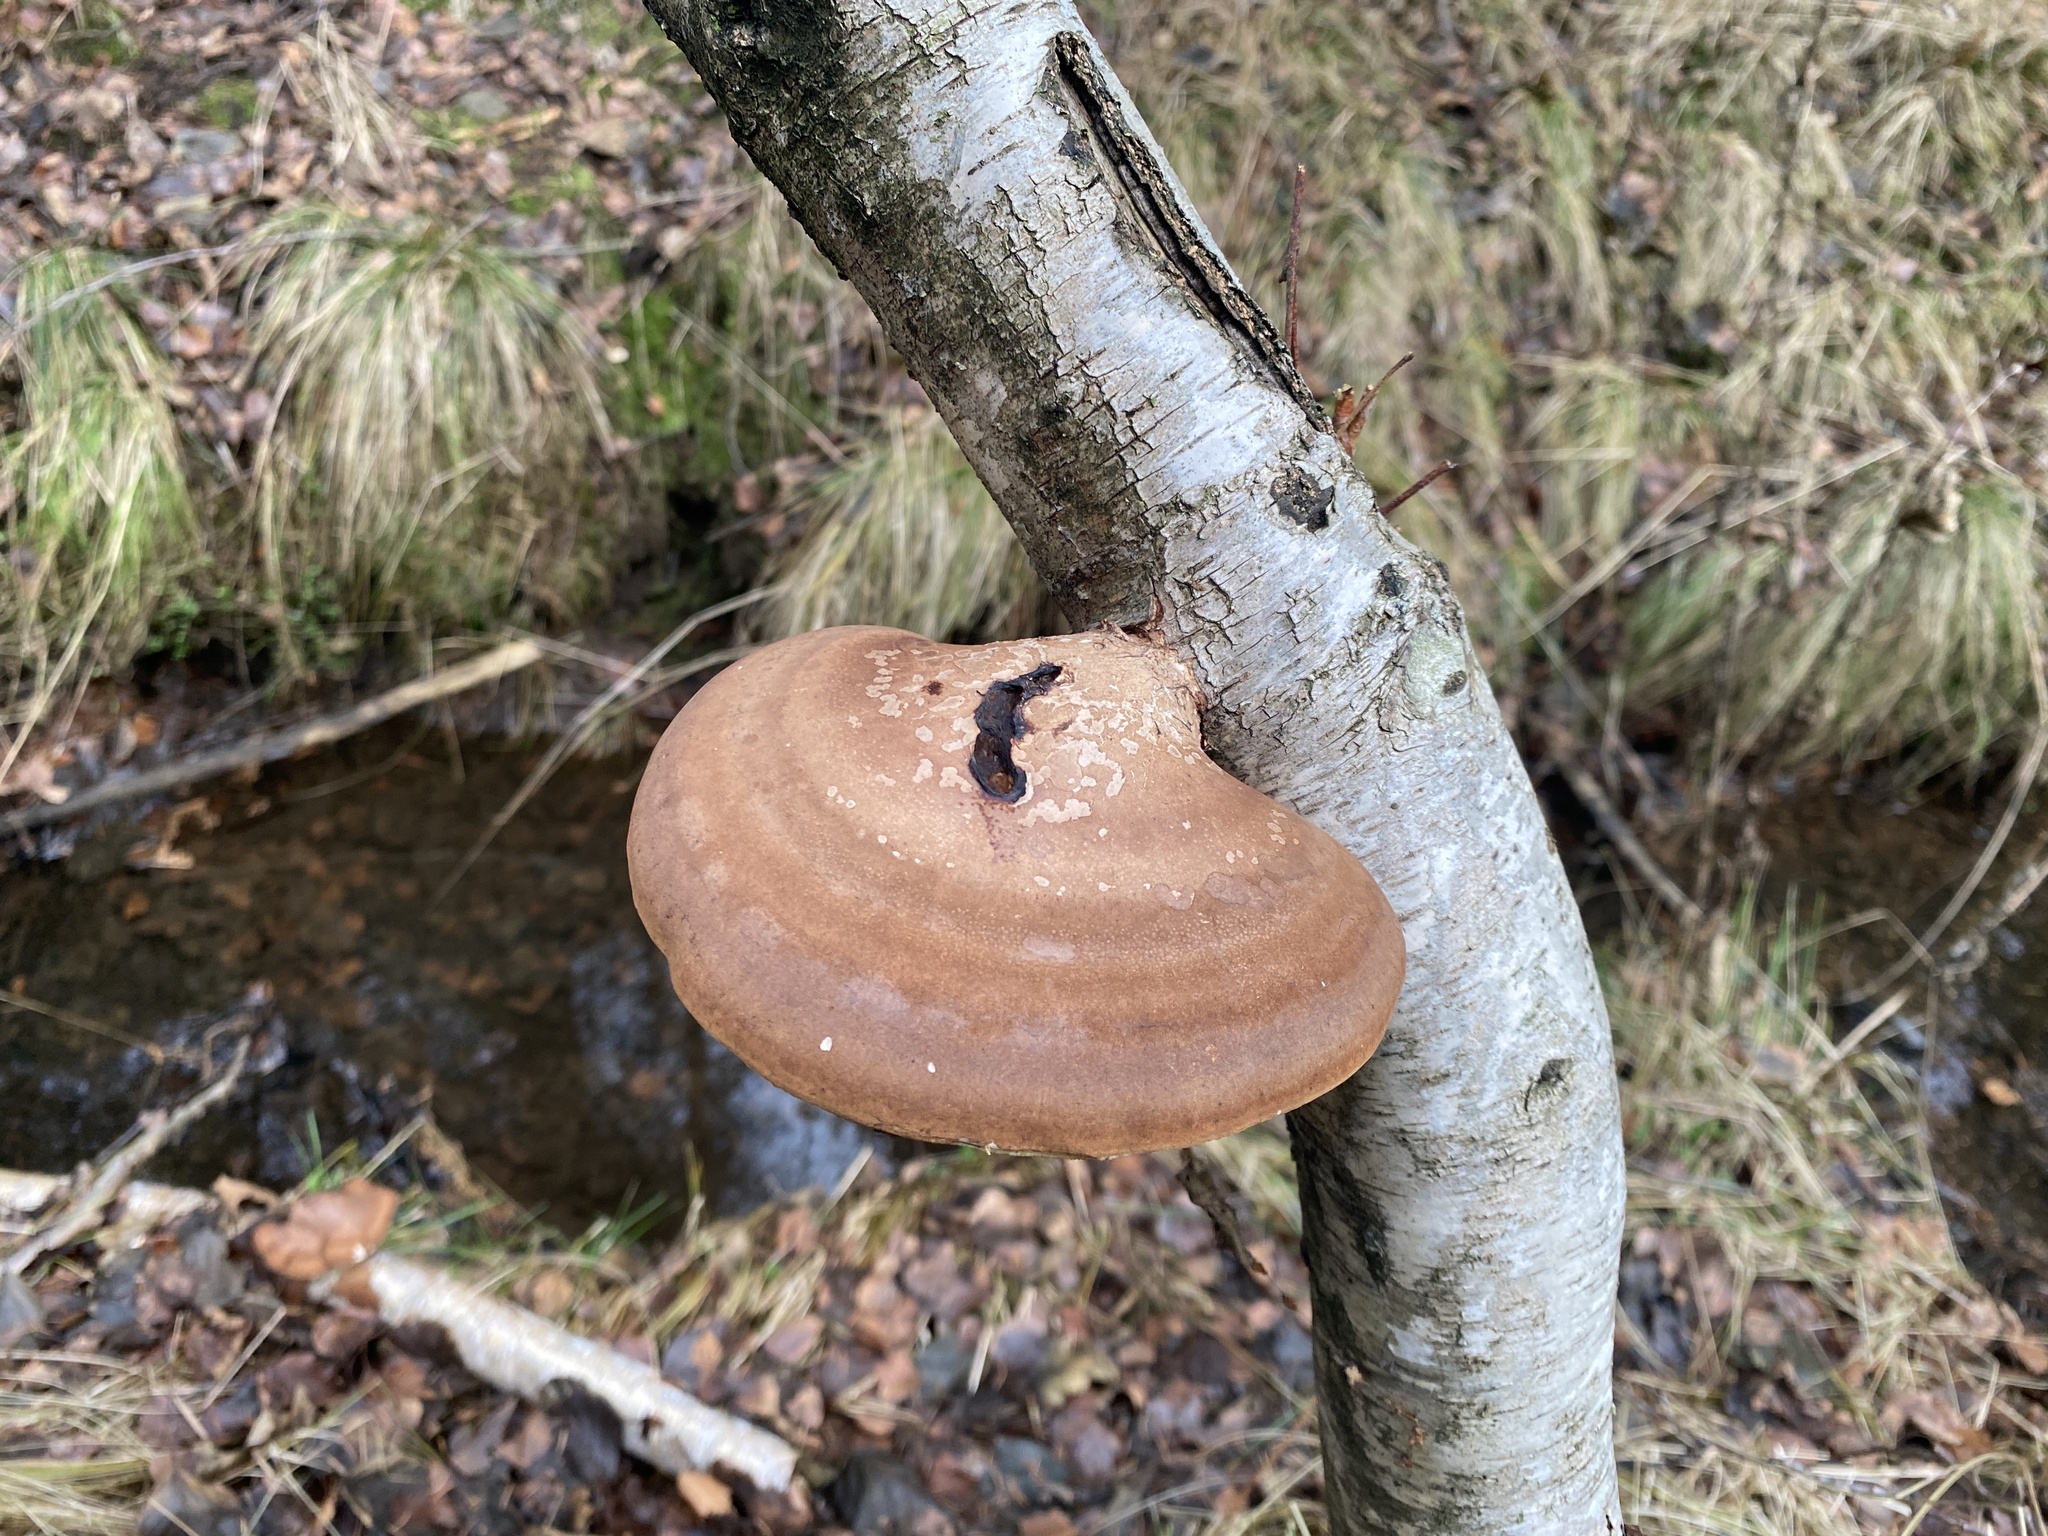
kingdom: Fungi
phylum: Basidiomycota
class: Agaricomycetes
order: Polyporales
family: Fomitopsidaceae
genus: Fomitopsis
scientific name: Fomitopsis betulina
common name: Birch polypore
